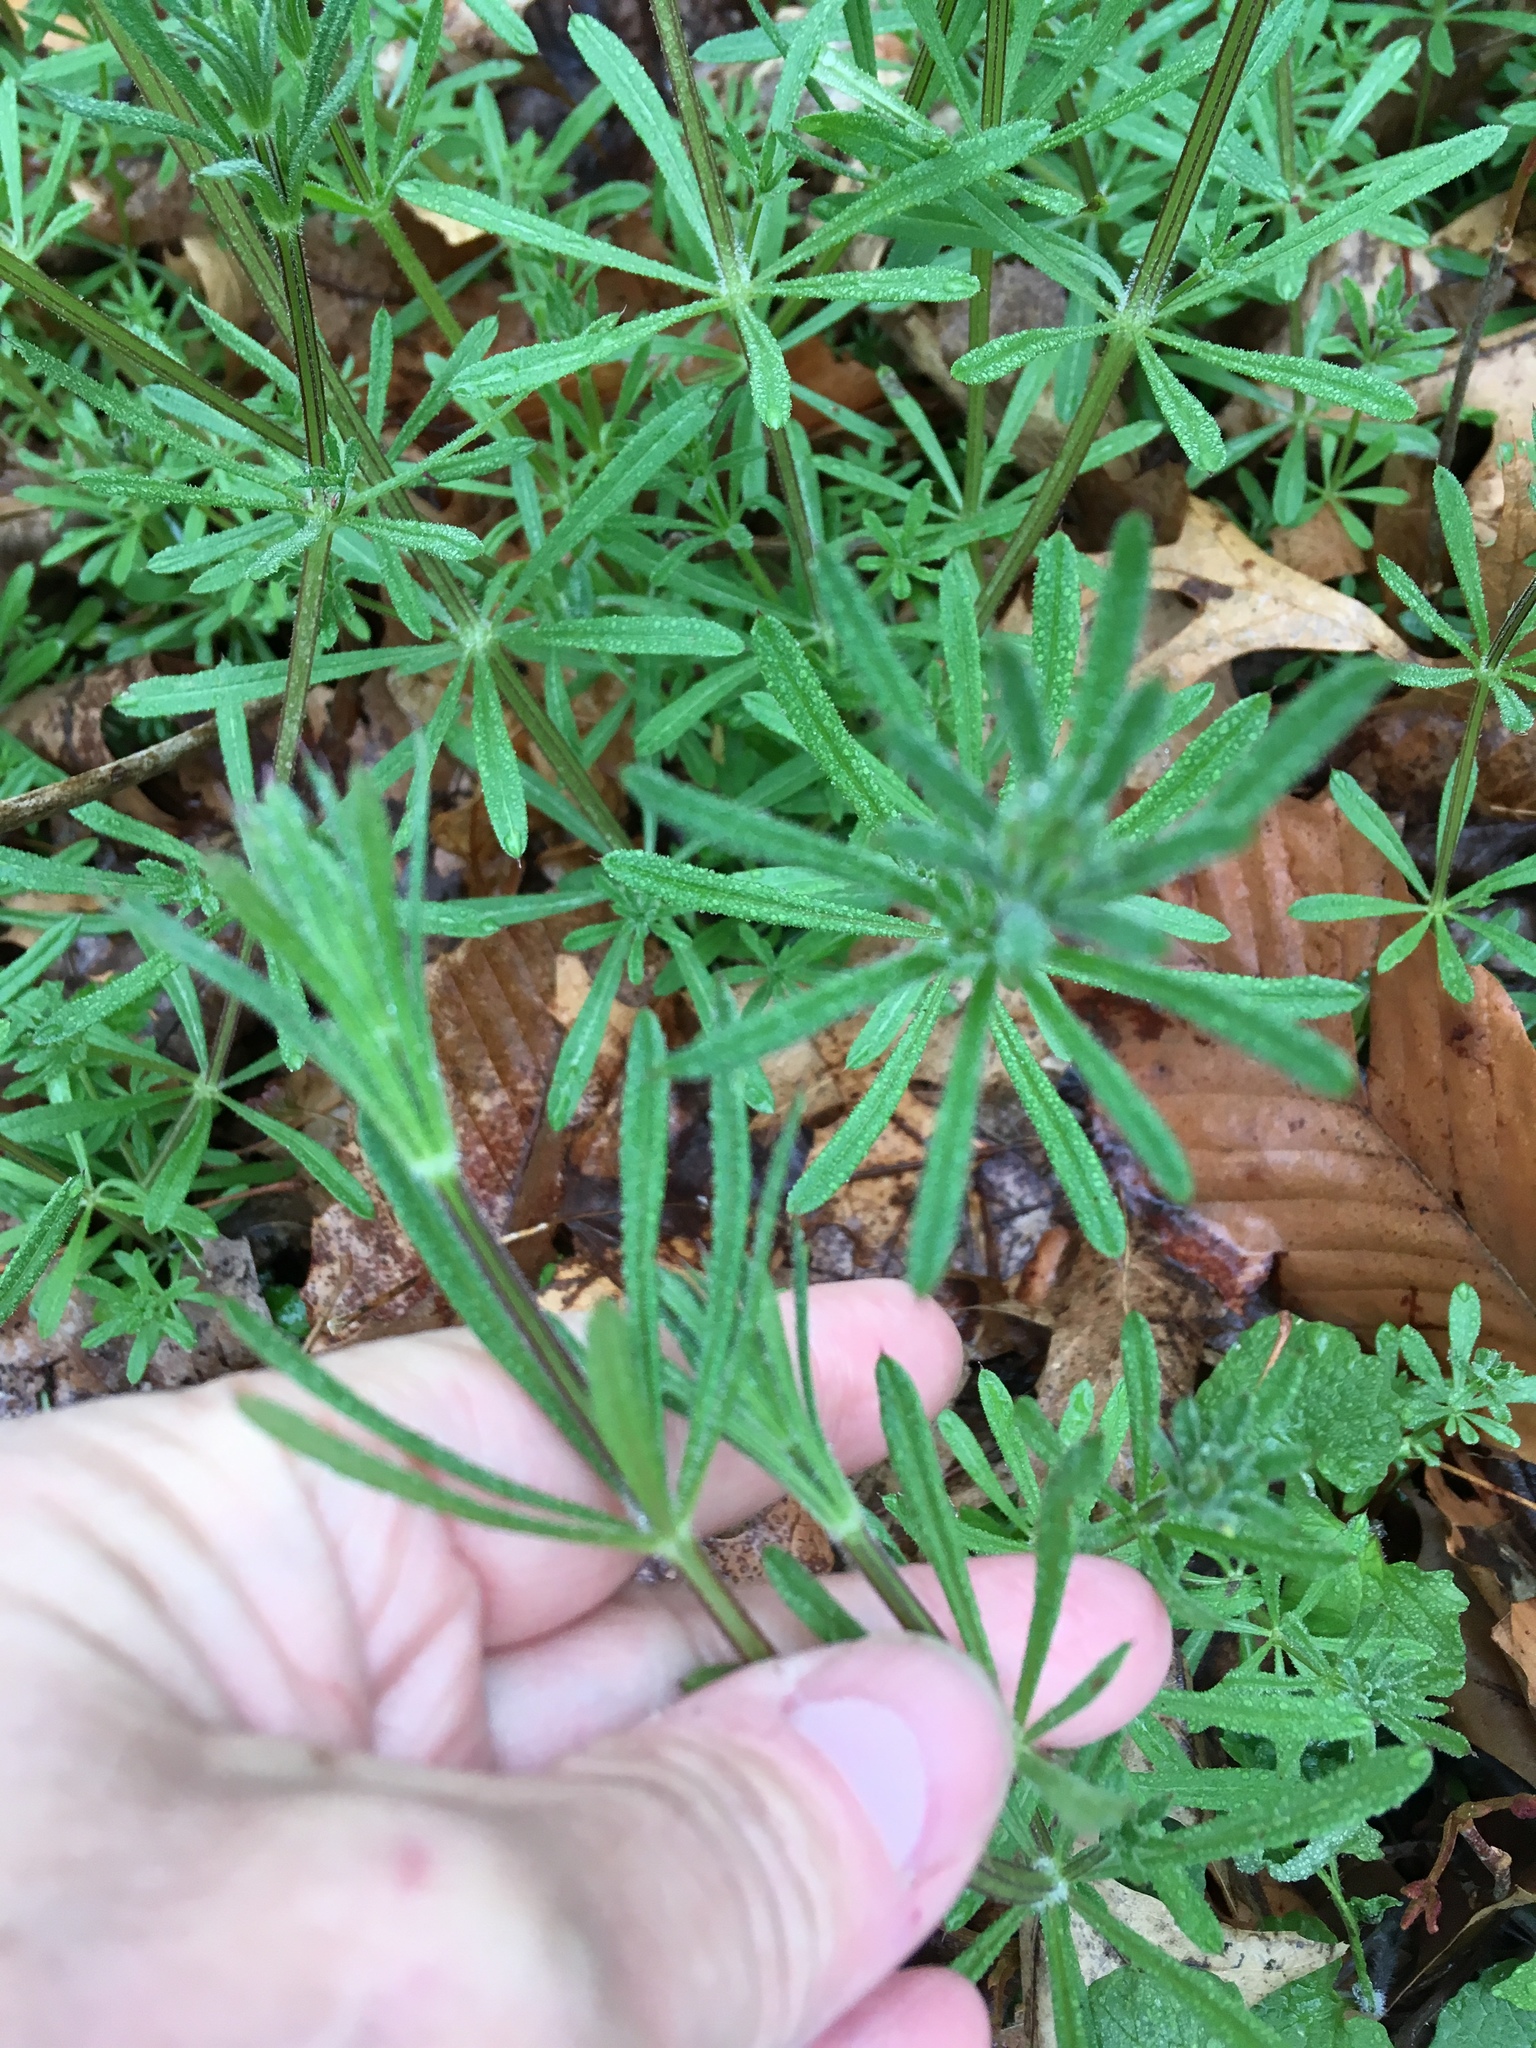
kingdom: Plantae
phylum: Tracheophyta
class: Magnoliopsida
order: Gentianales
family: Rubiaceae
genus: Galium
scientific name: Galium aparine
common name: Cleavers
